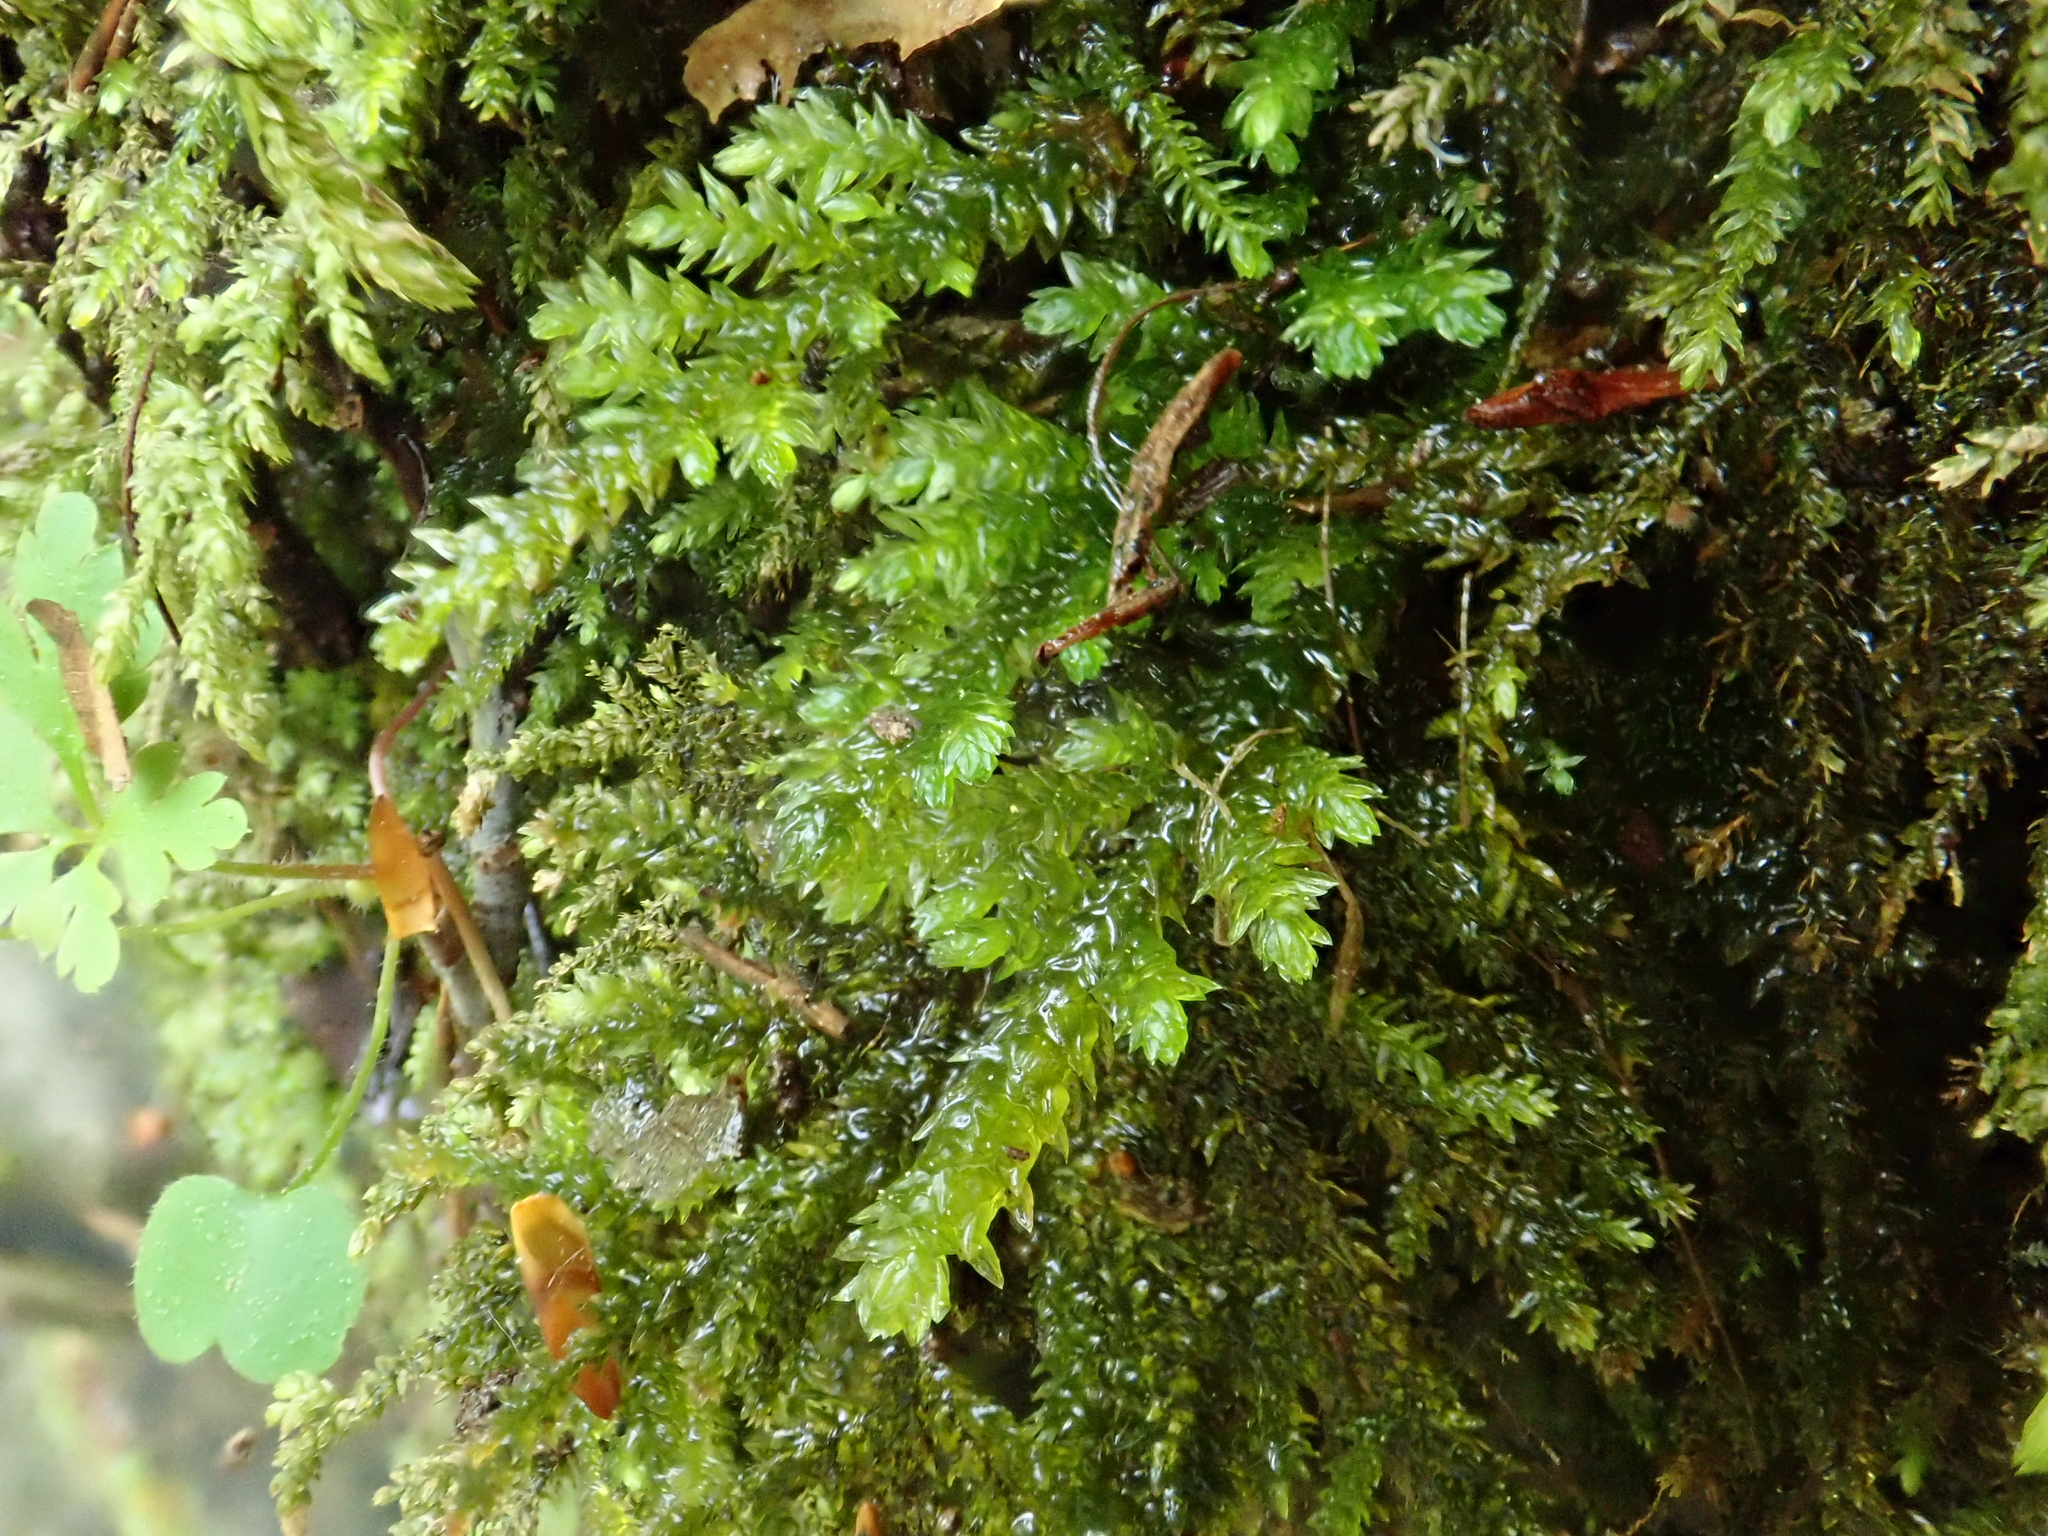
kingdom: Plantae
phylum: Bryophyta
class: Bryopsida
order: Hypnales
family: Neckeraceae
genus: Thamnobryum
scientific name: Thamnobryum alopecurum
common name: Fox-tail feather-moss
